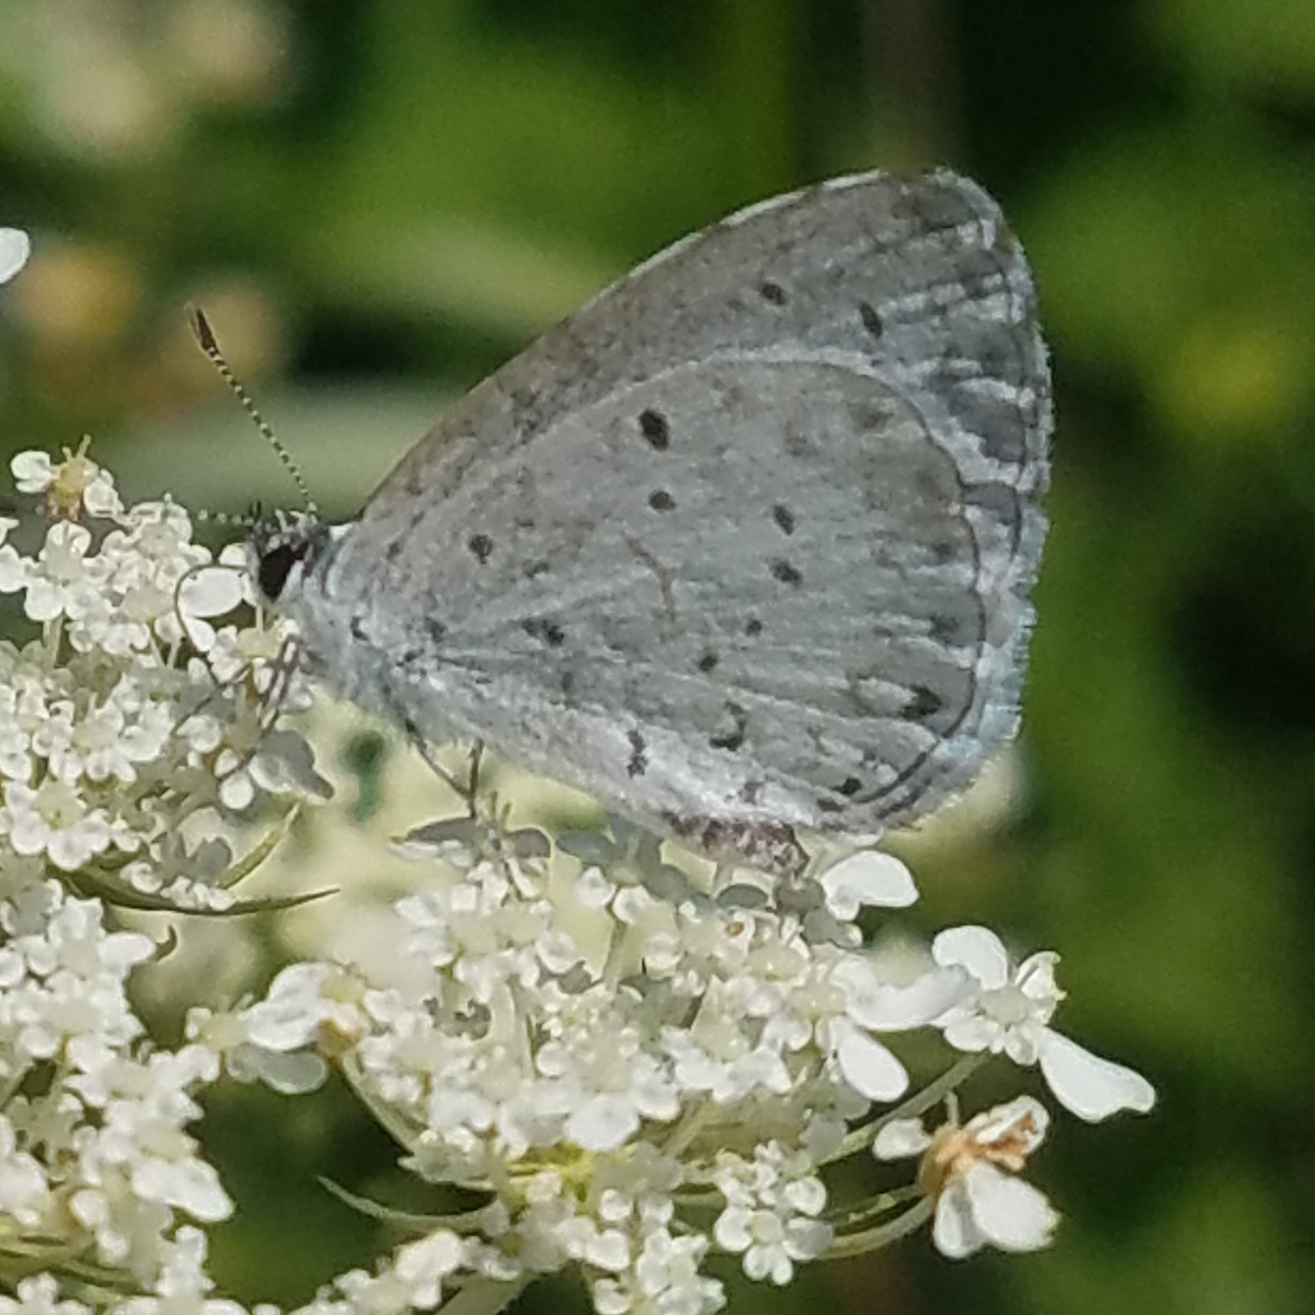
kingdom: Animalia
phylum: Arthropoda
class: Insecta
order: Lepidoptera
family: Lycaenidae
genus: Cyaniris
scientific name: Cyaniris neglecta
